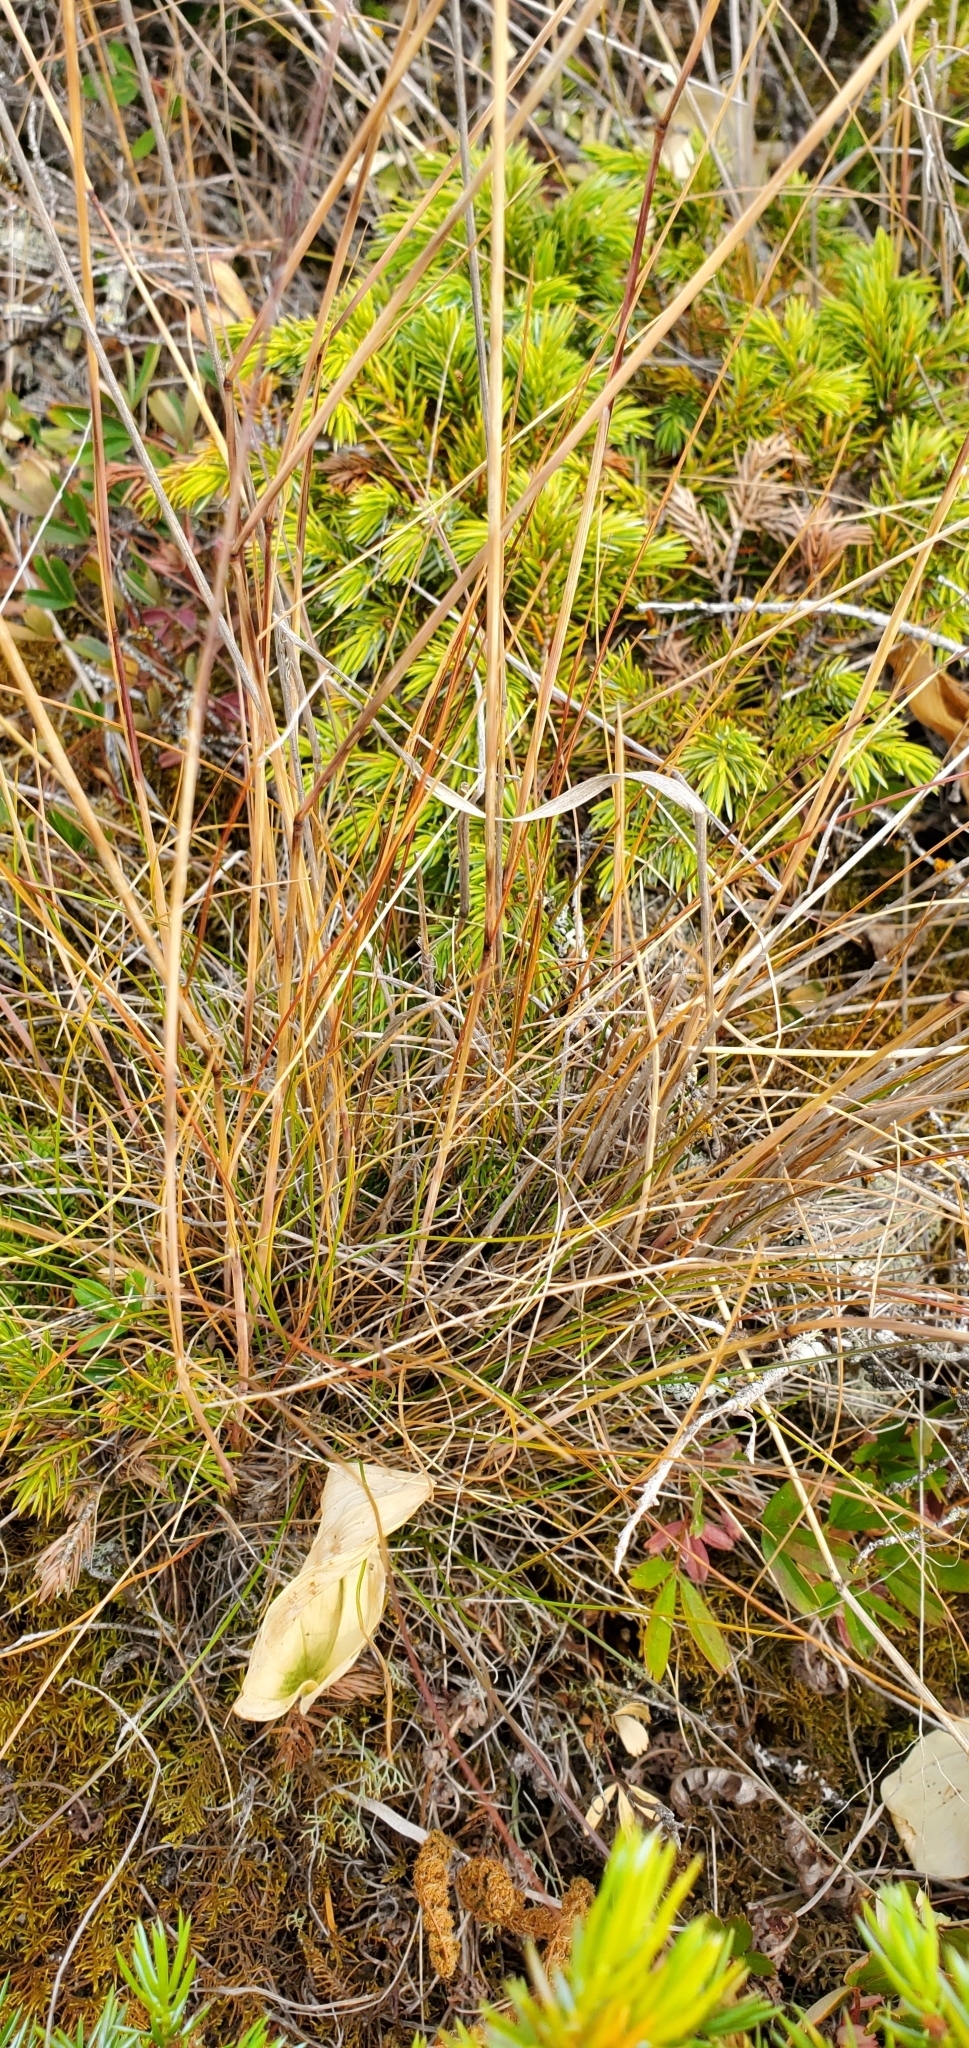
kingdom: Plantae
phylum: Tracheophyta
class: Liliopsida
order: Poales
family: Poaceae
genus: Avenella
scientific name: Avenella flexuosa
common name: Wavy hairgrass
